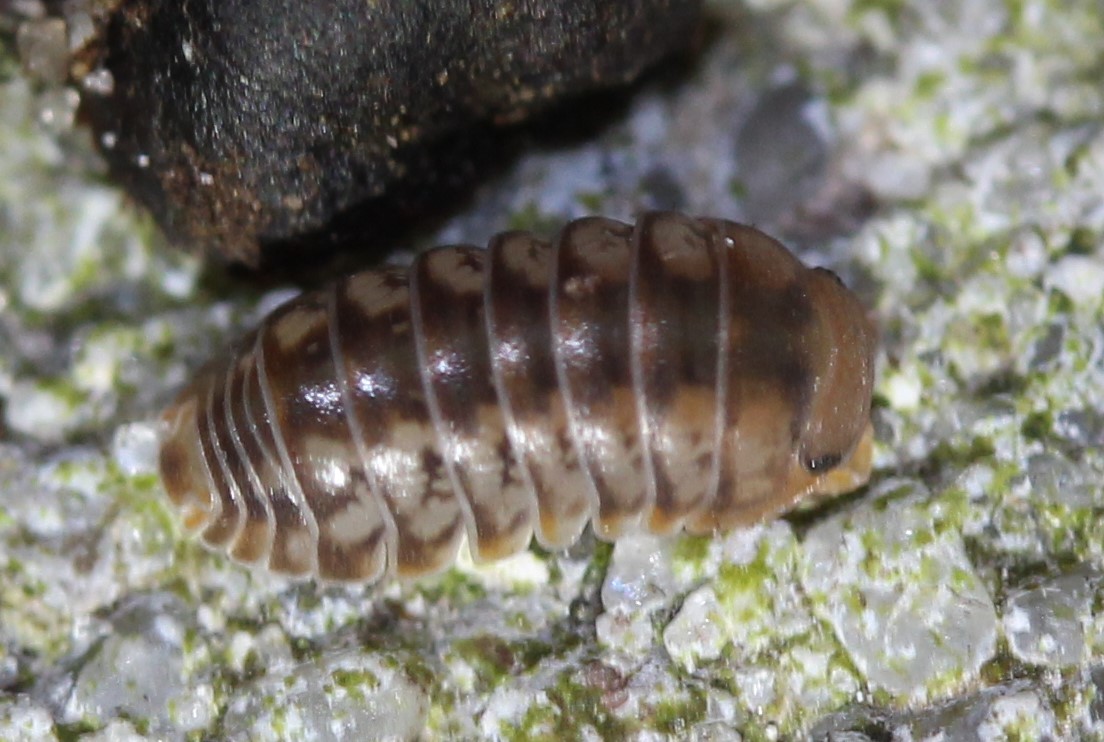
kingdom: Animalia
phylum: Arthropoda
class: Malacostraca
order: Isopoda
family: Armadillidae
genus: Venezillo
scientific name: Venezillo parvus
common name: Pillbug
